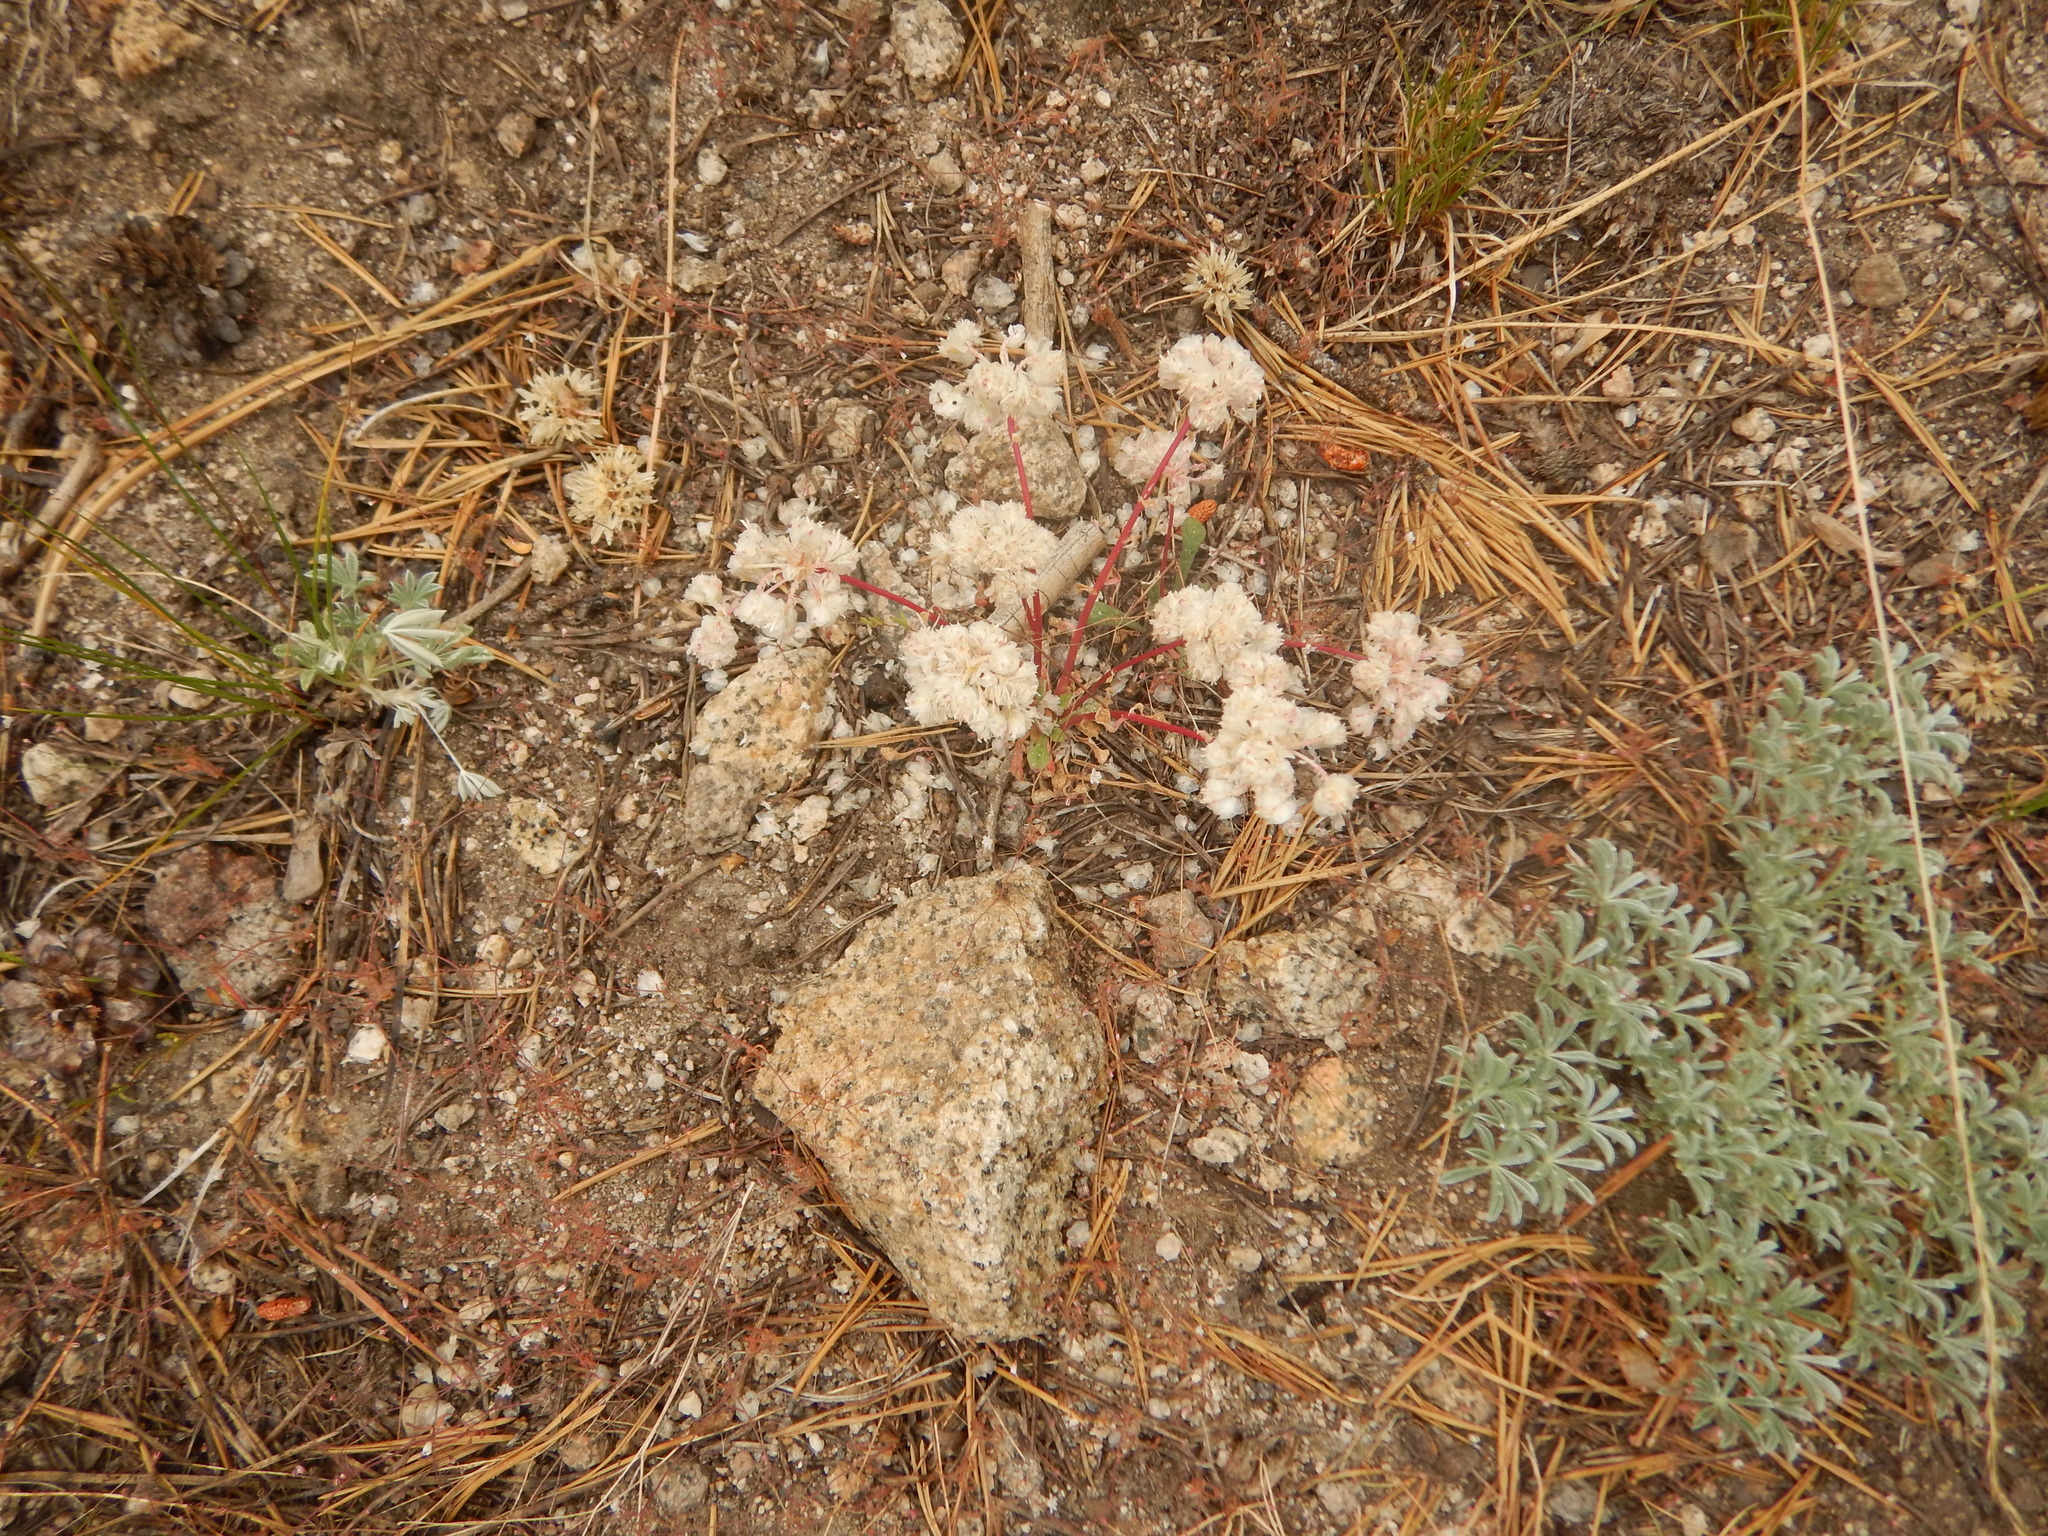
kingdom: Plantae
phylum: Tracheophyta
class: Magnoliopsida
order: Caryophyllales
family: Montiaceae
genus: Calyptridium
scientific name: Calyptridium monospermum
